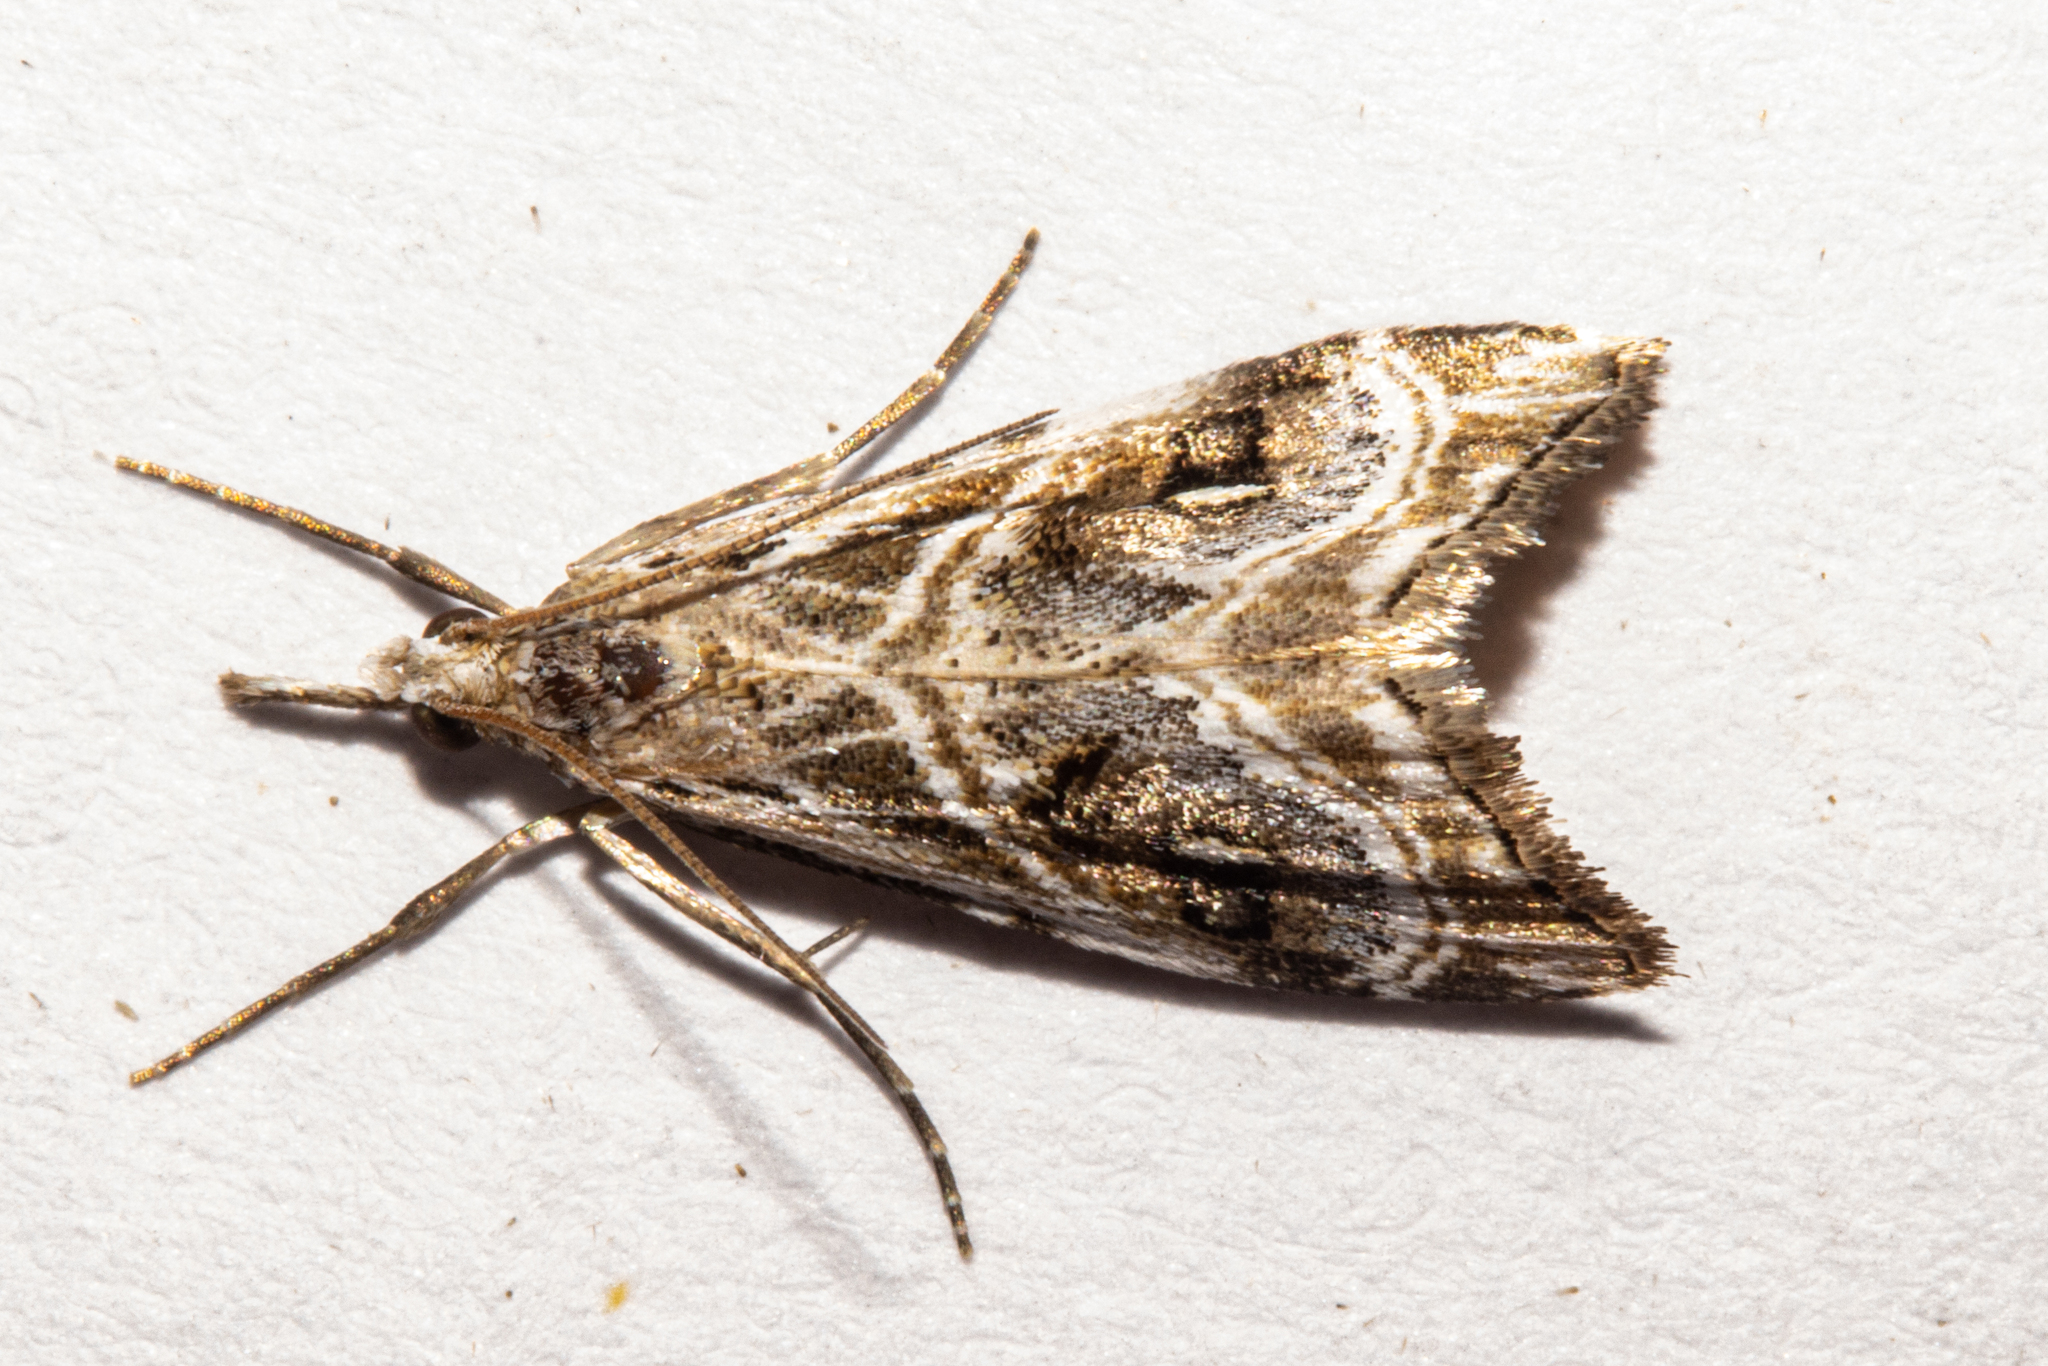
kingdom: Animalia
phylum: Arthropoda
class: Insecta
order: Lepidoptera
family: Crambidae
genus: Gadira
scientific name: Gadira acerella
